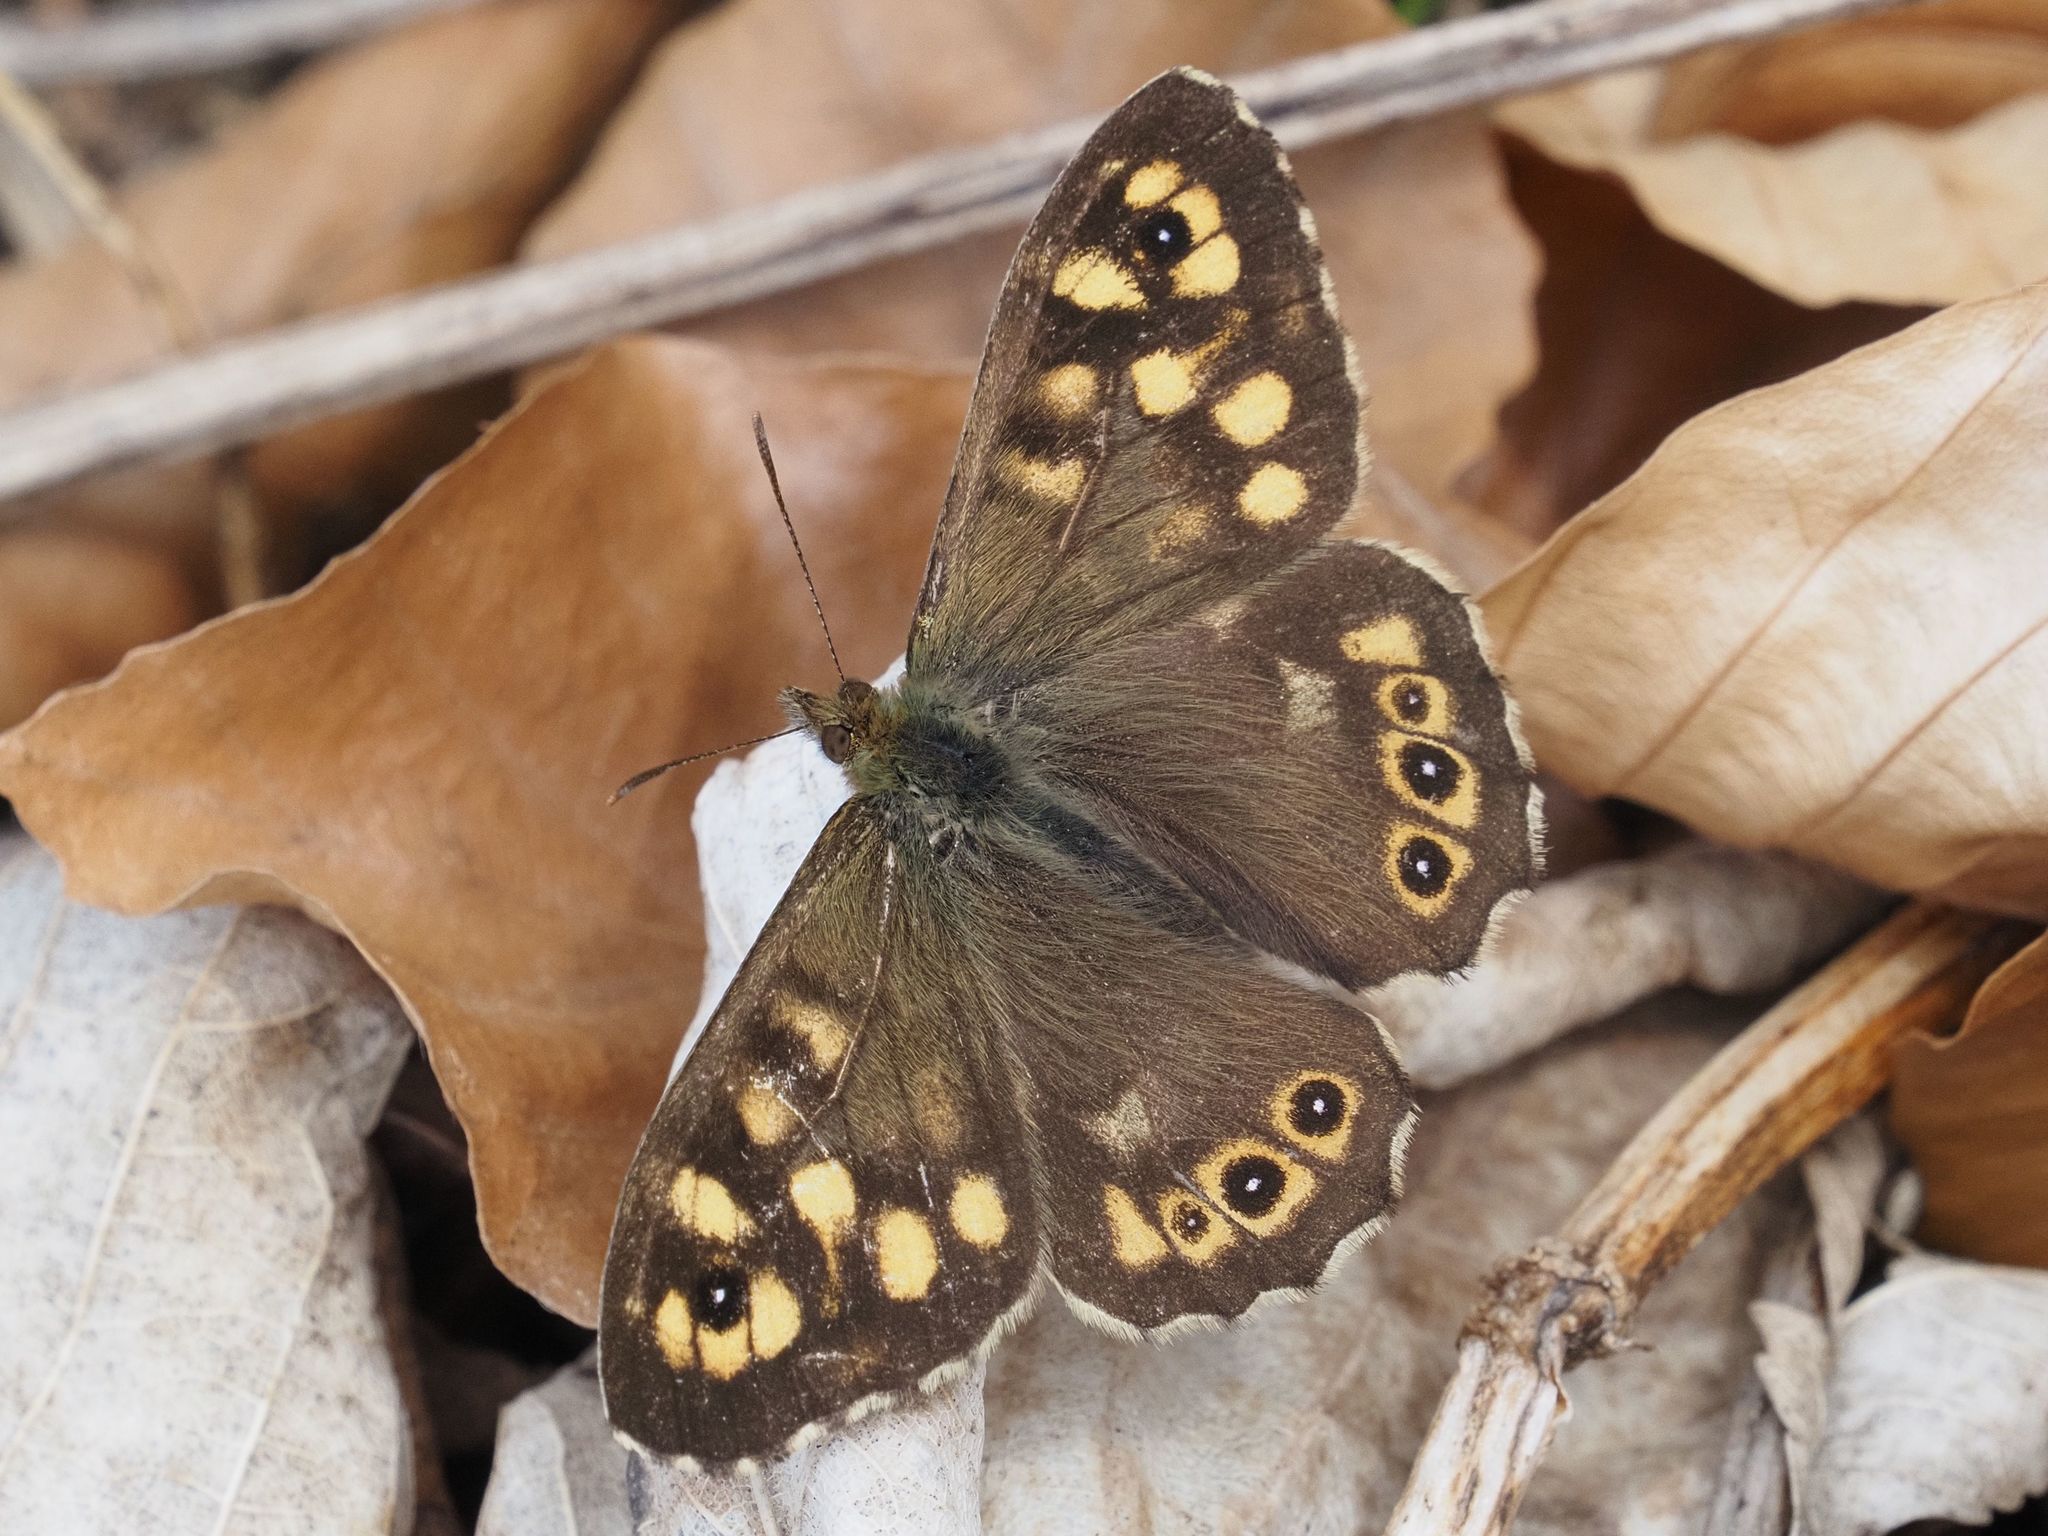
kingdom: Animalia
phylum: Arthropoda
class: Insecta
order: Lepidoptera
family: Nymphalidae
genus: Pararge
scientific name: Pararge aegeria
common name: Speckled wood
